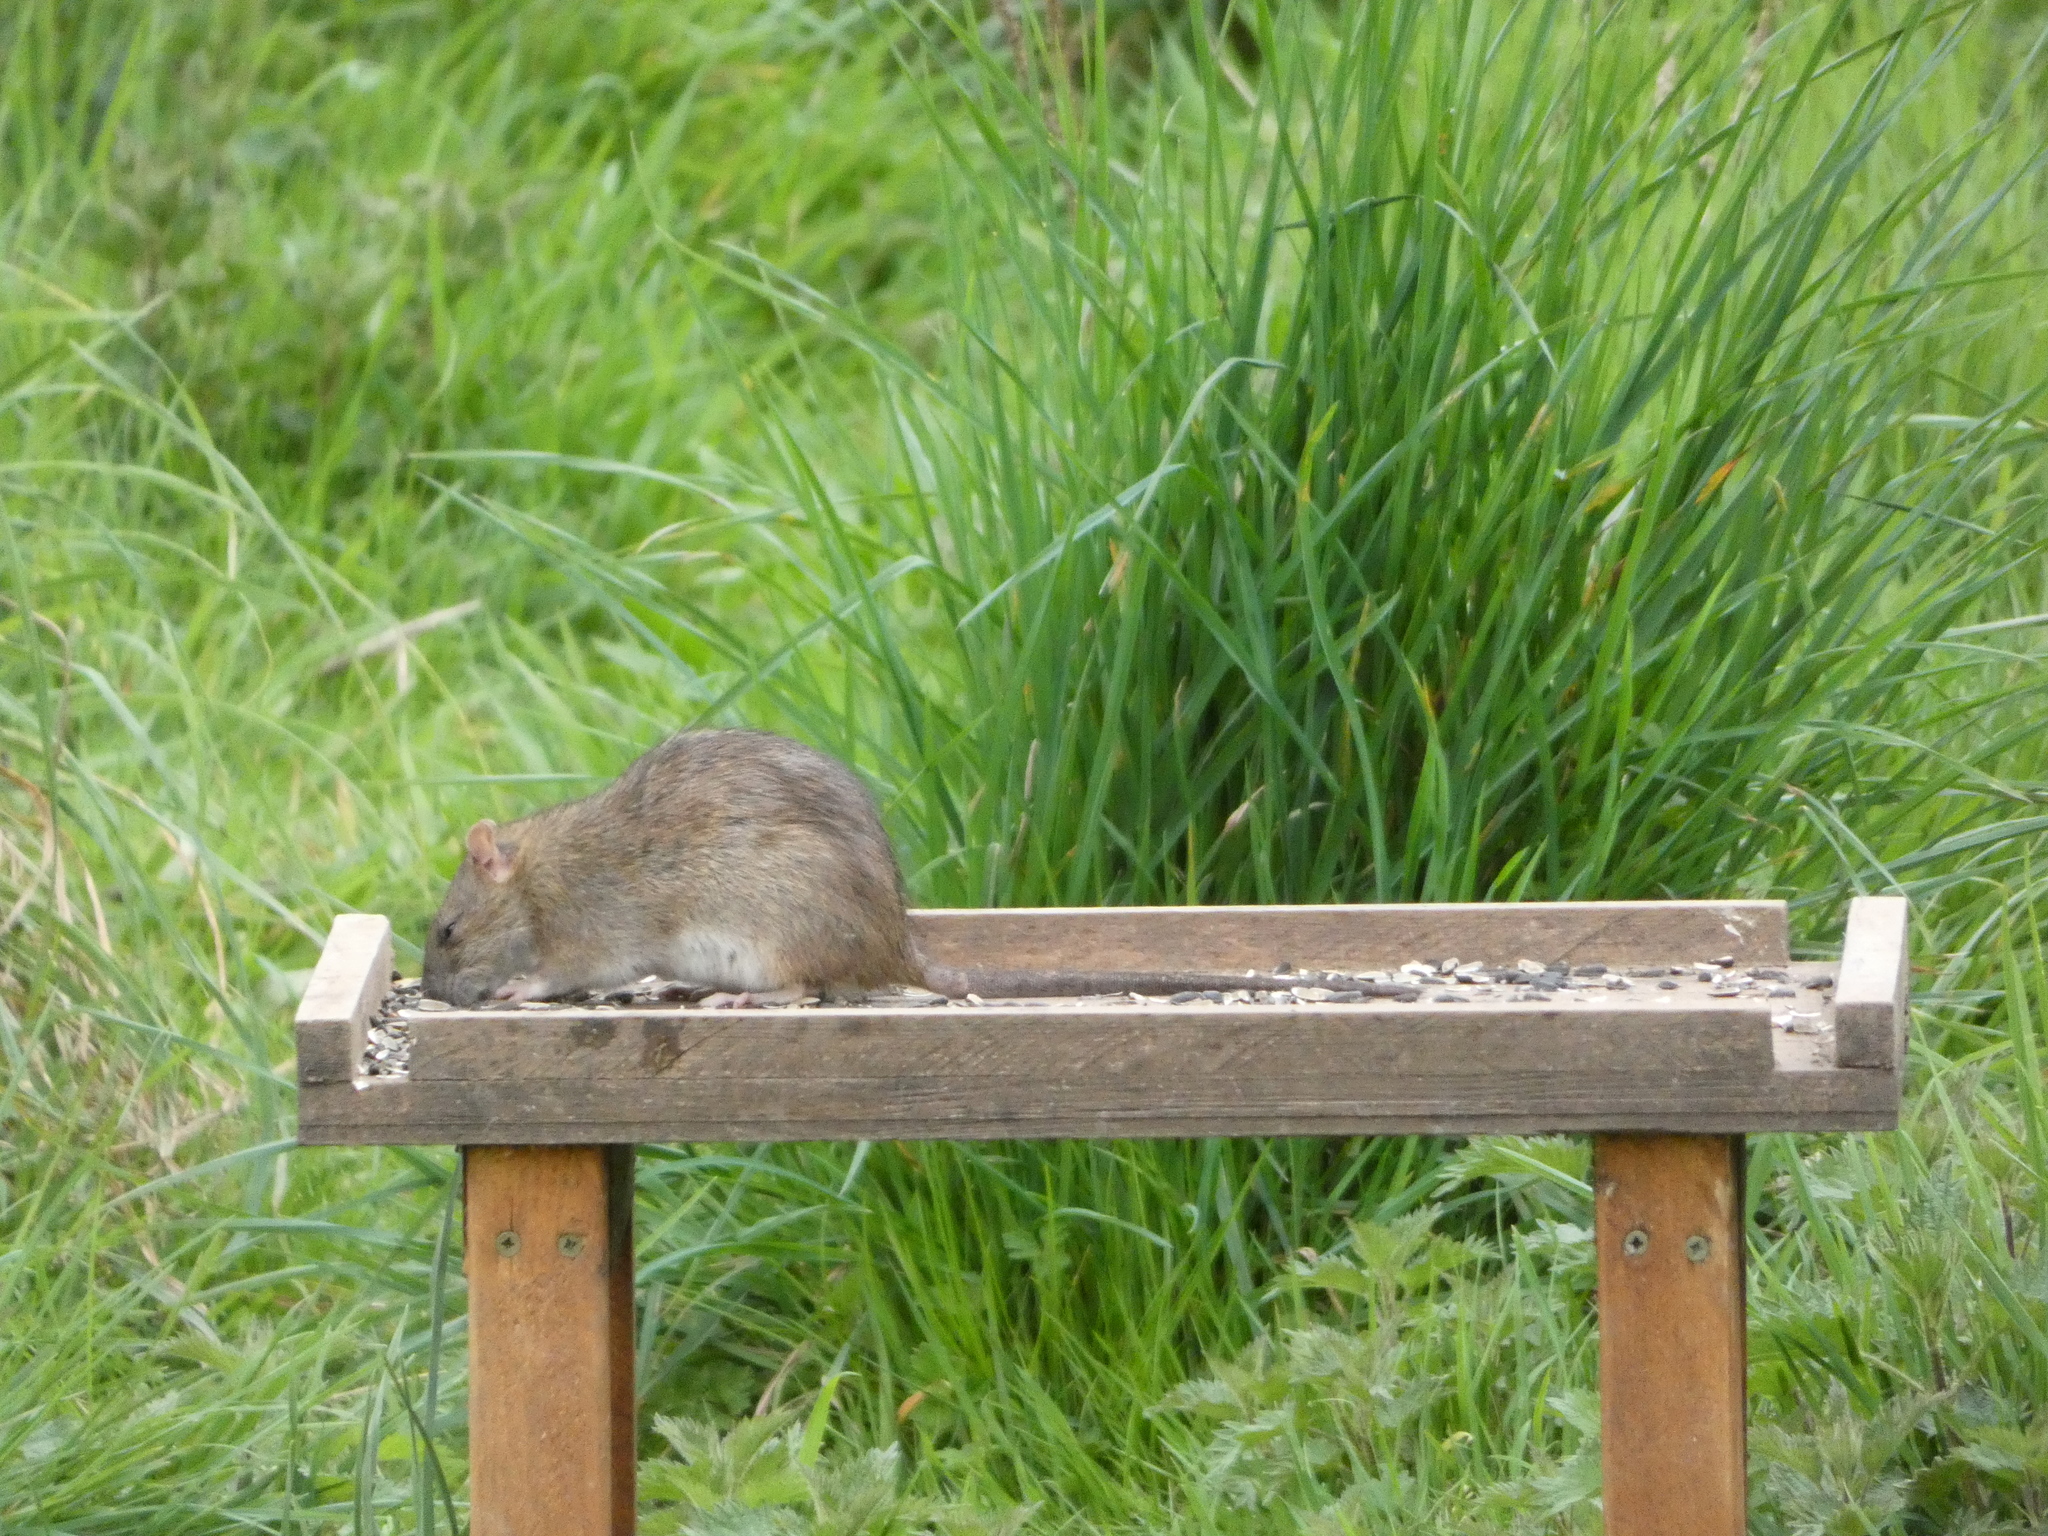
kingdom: Animalia
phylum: Chordata
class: Mammalia
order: Rodentia
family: Muridae
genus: Rattus
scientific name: Rattus norvegicus
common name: Brown rat
